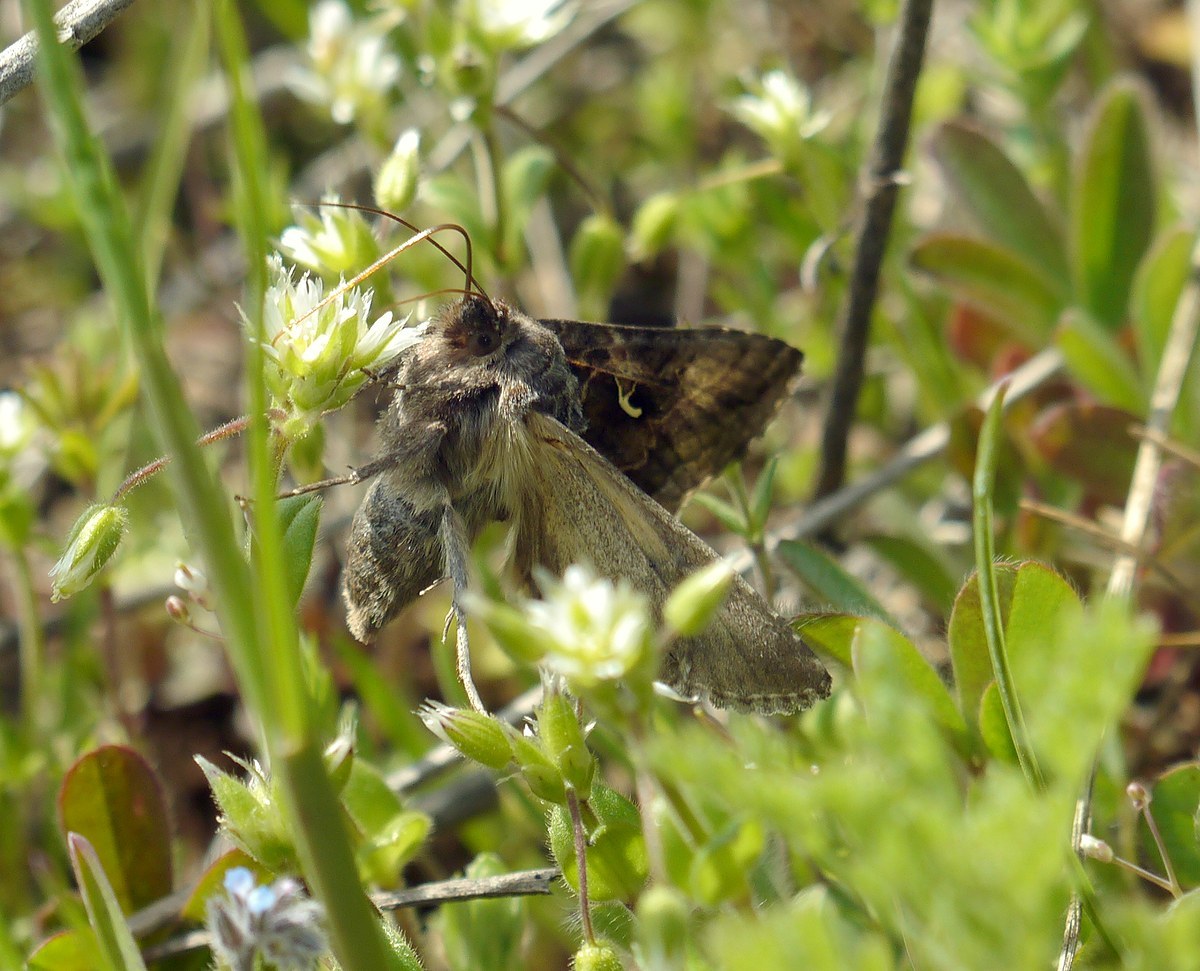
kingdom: Animalia
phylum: Arthropoda
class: Insecta
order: Lepidoptera
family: Noctuidae
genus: Autographa
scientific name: Autographa gamma
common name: Silver y
